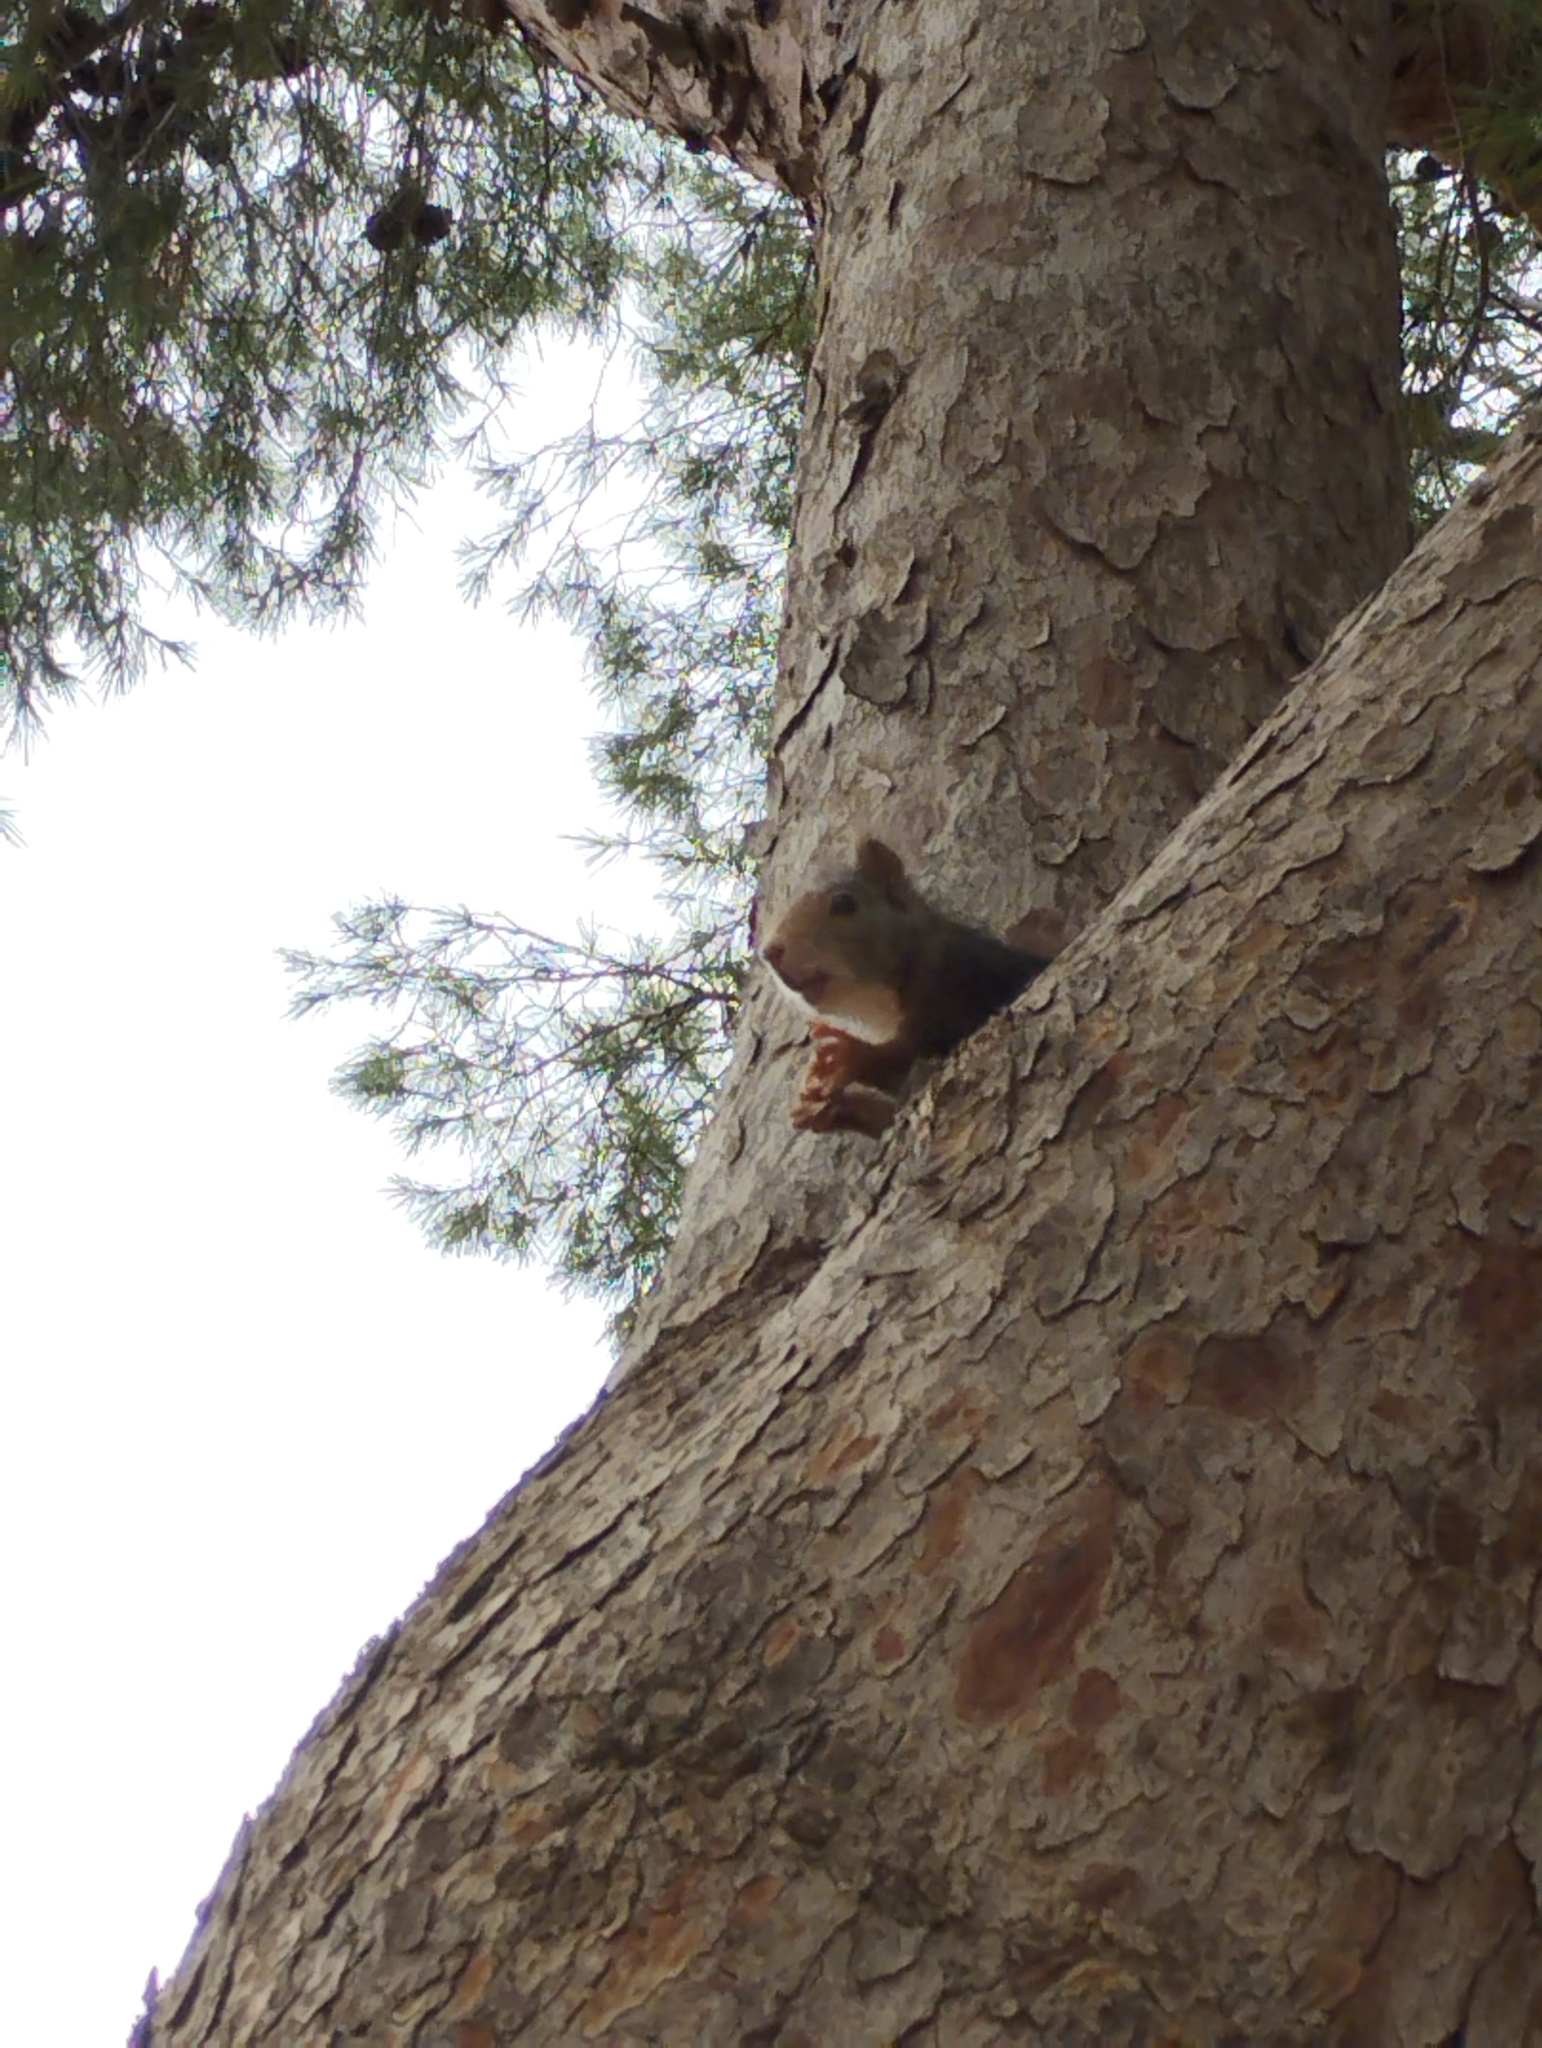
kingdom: Animalia
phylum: Chordata
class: Mammalia
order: Rodentia
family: Sciuridae
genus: Sciurus
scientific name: Sciurus vulgaris
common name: Eurasian red squirrel
